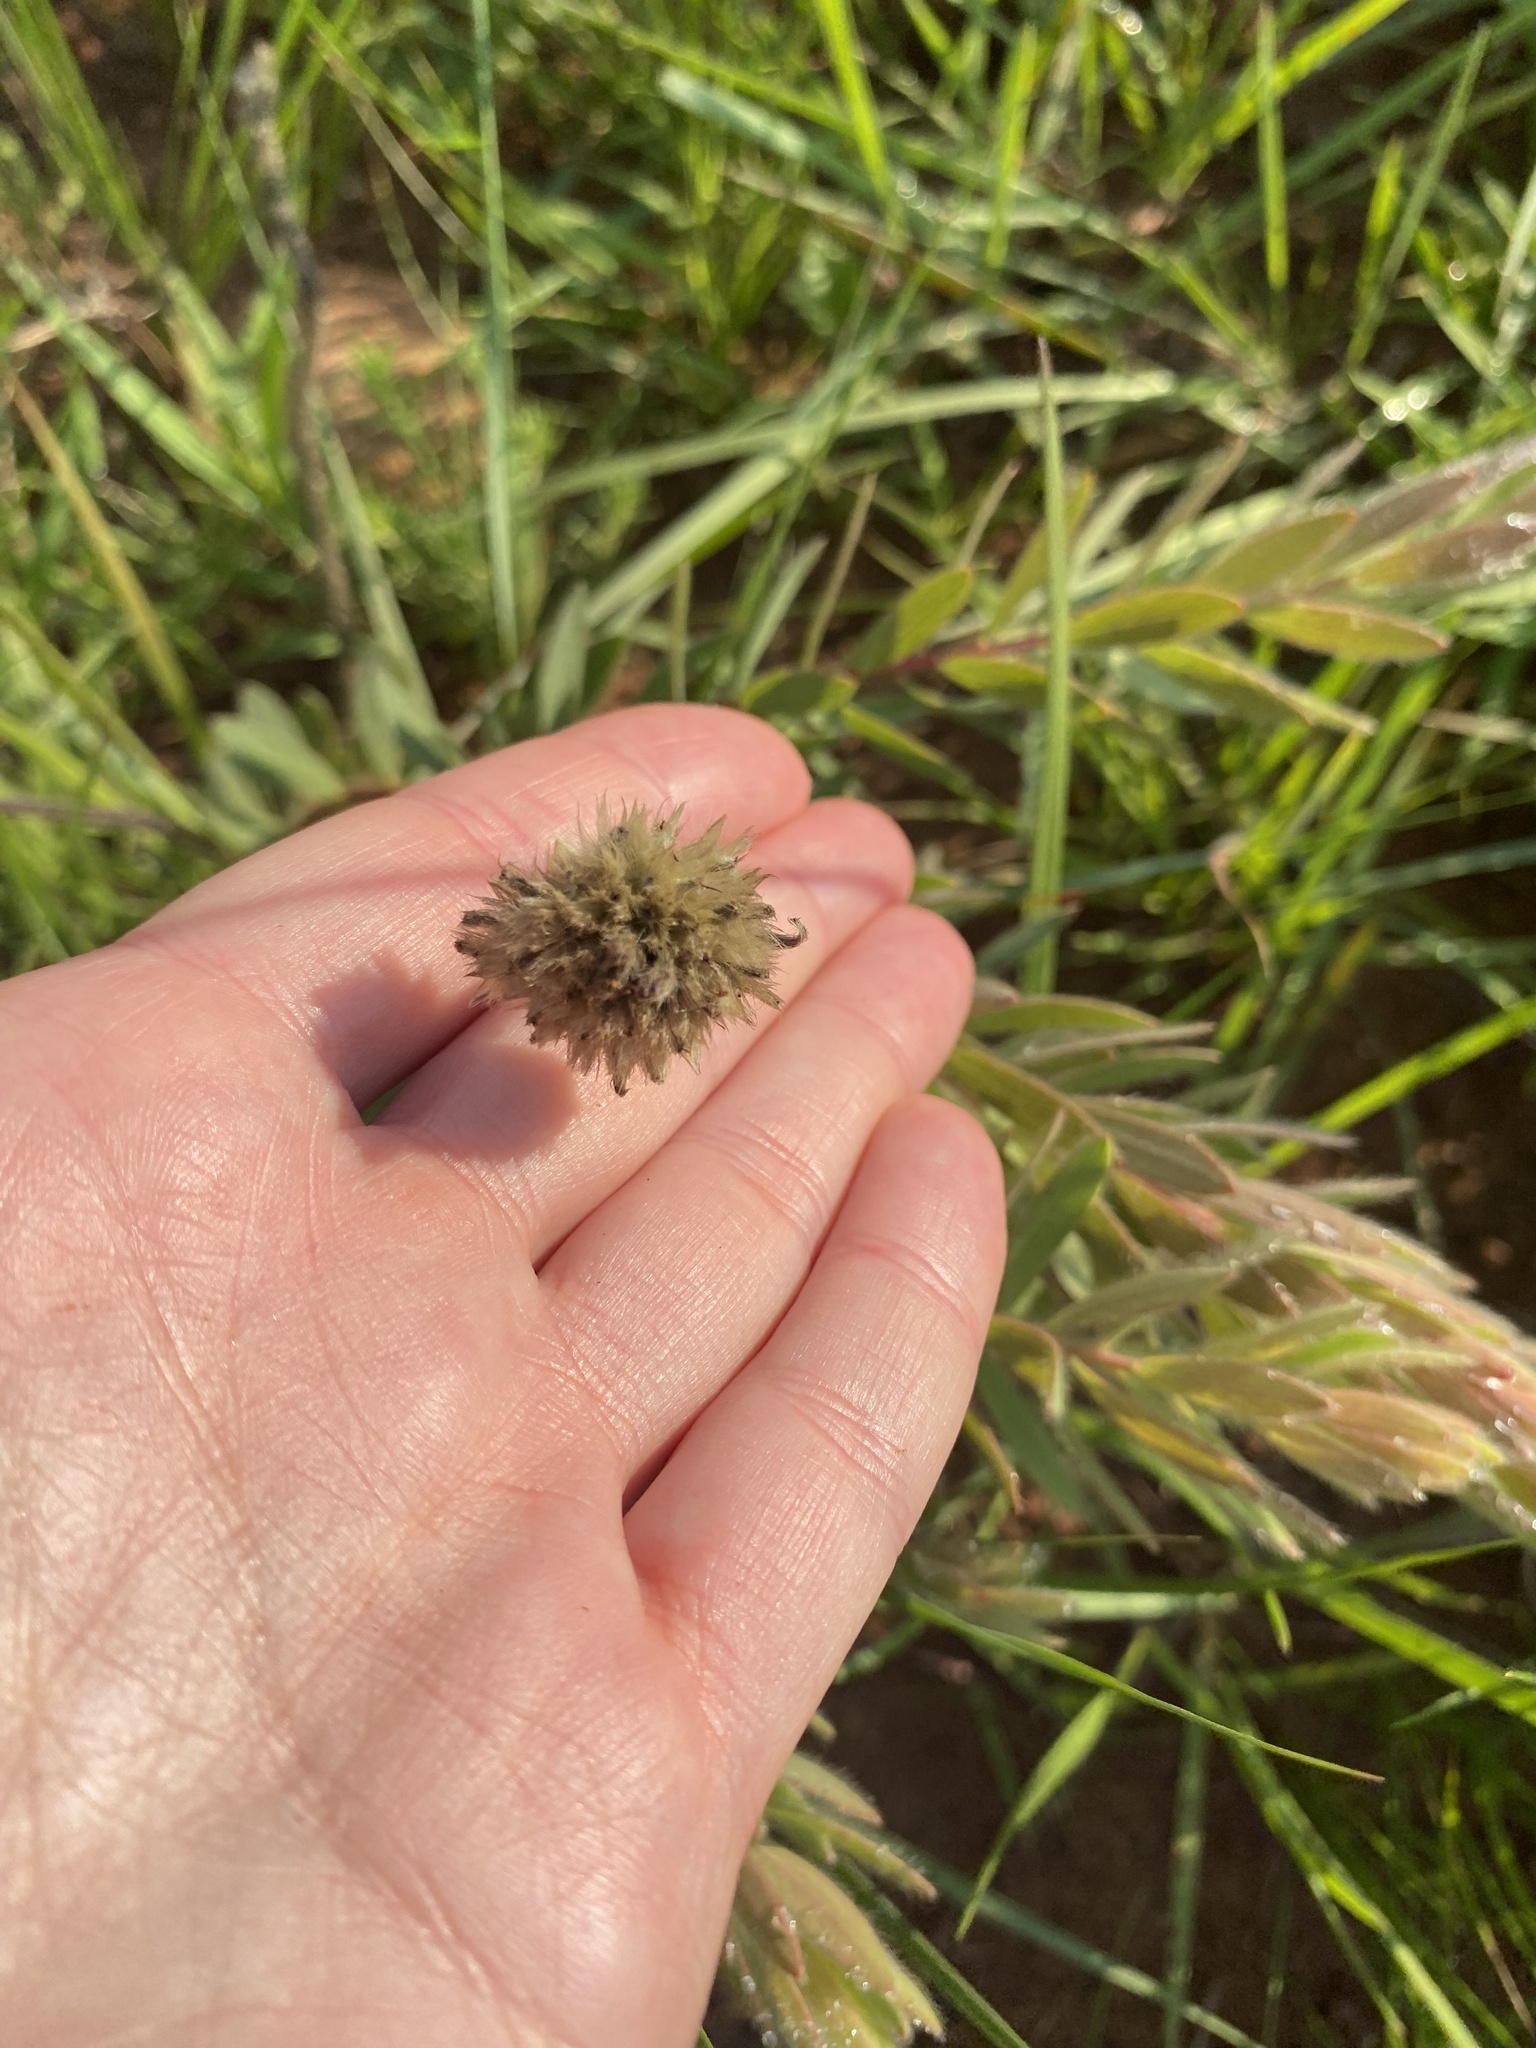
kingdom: Plantae
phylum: Tracheophyta
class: Magnoliopsida
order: Malvales
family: Thymelaeaceae
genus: Gnidia
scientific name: Gnidia kraussiana
